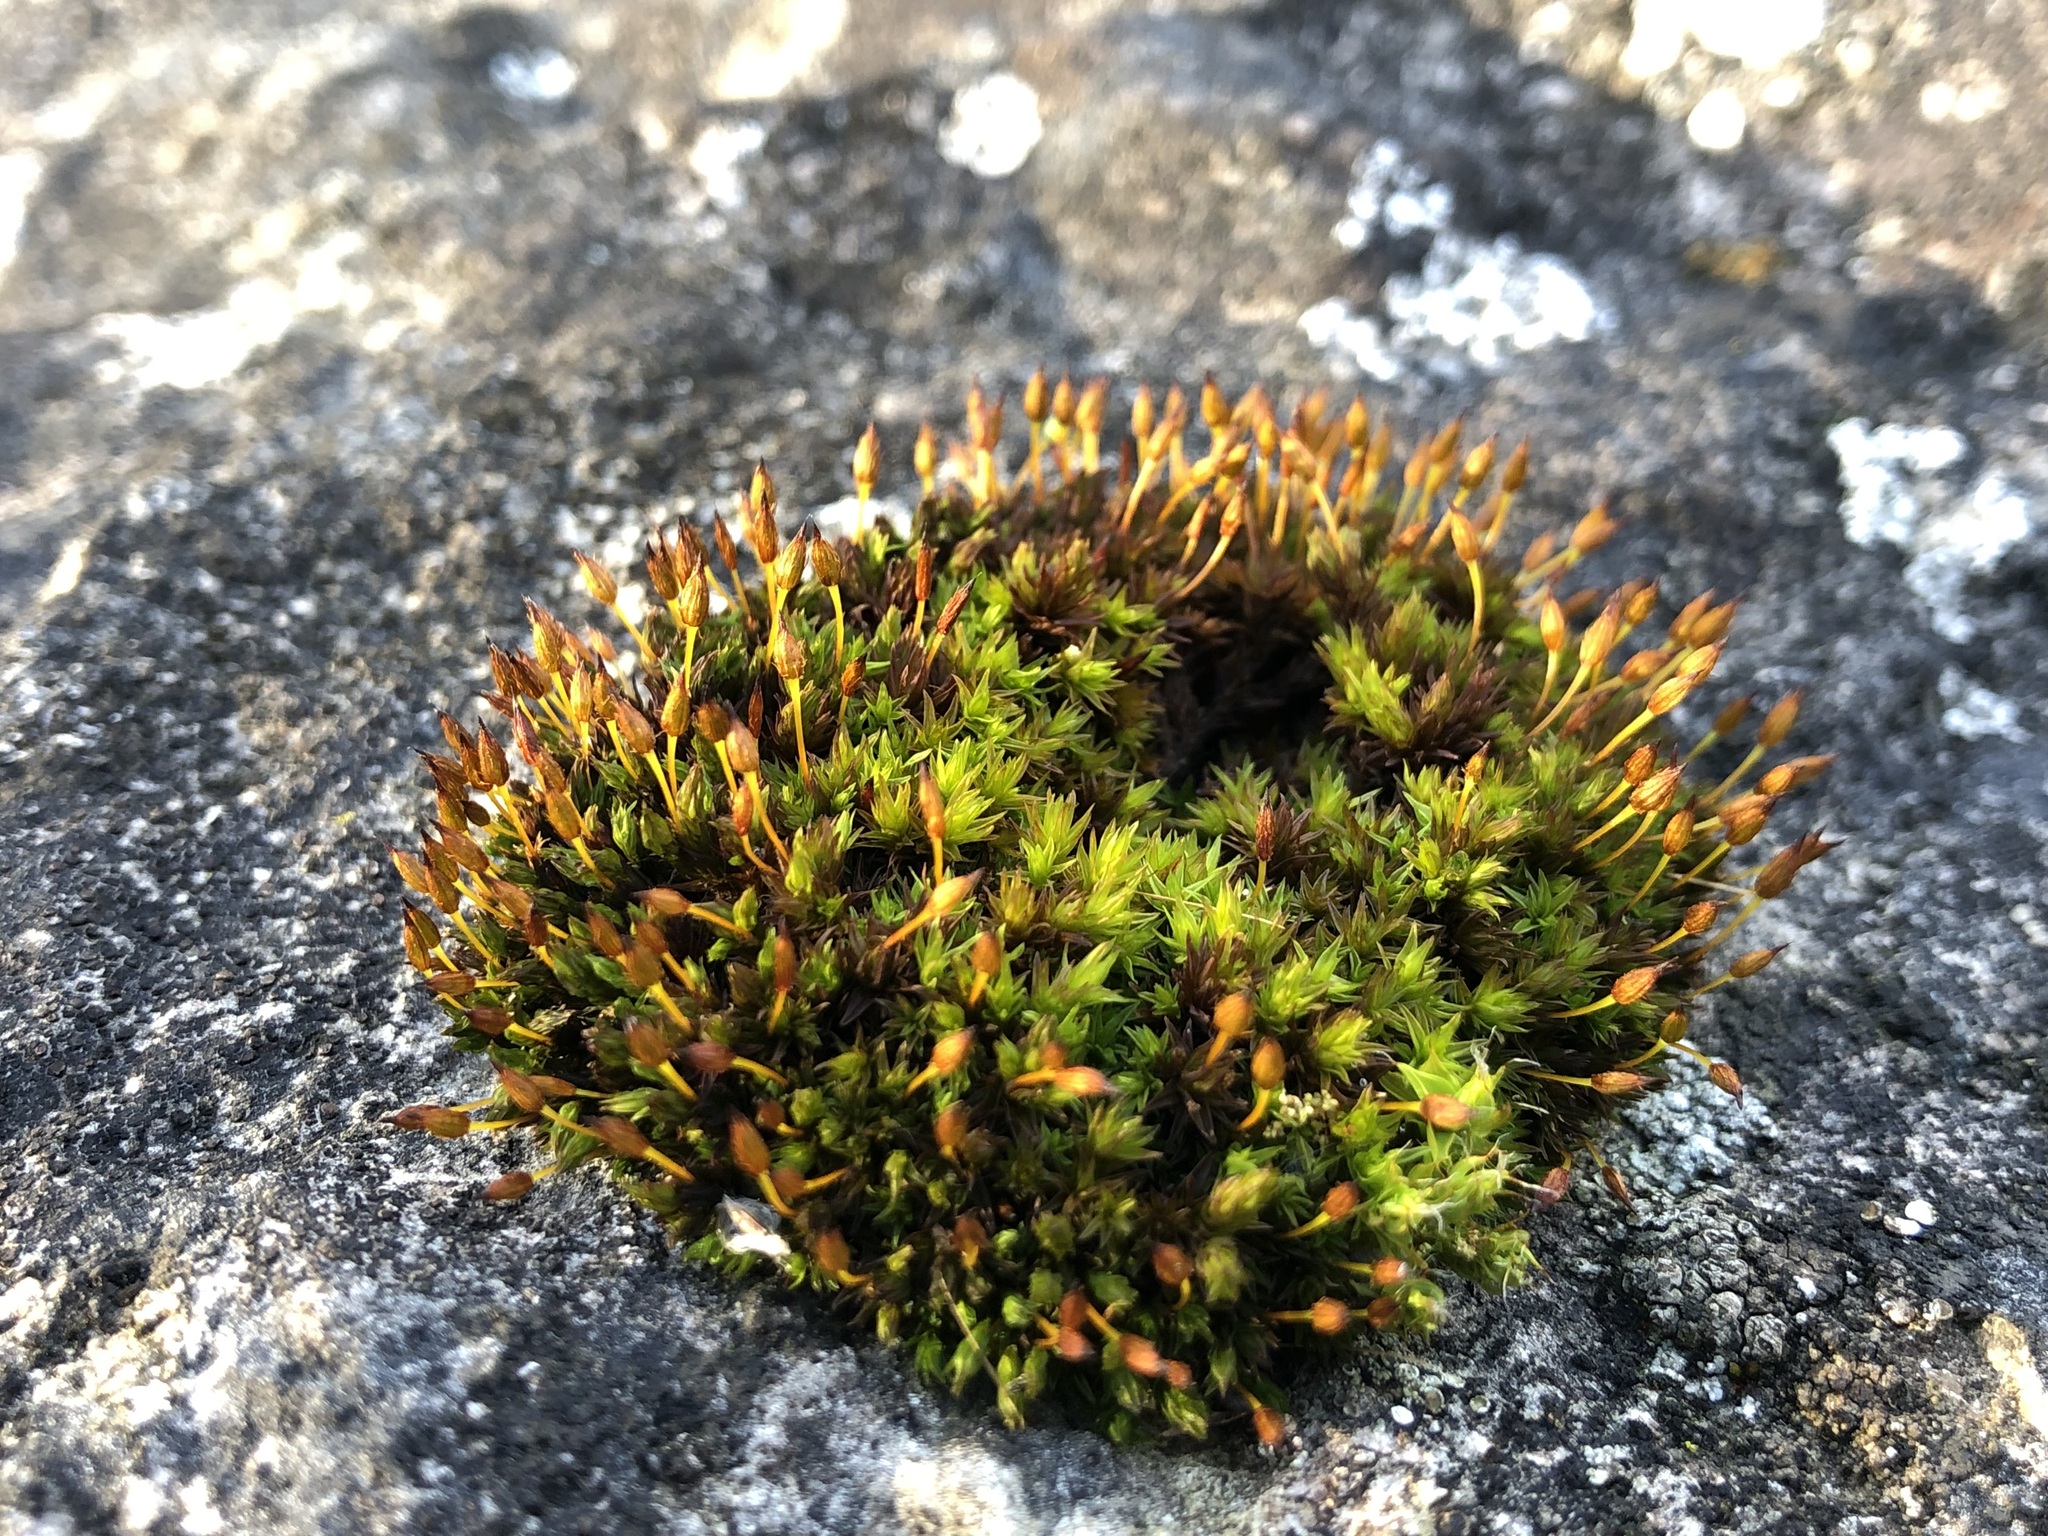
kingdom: Plantae
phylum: Bryophyta
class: Bryopsida
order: Orthotrichales
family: Orthotrichaceae
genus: Orthotrichum
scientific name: Orthotrichum anomalum
